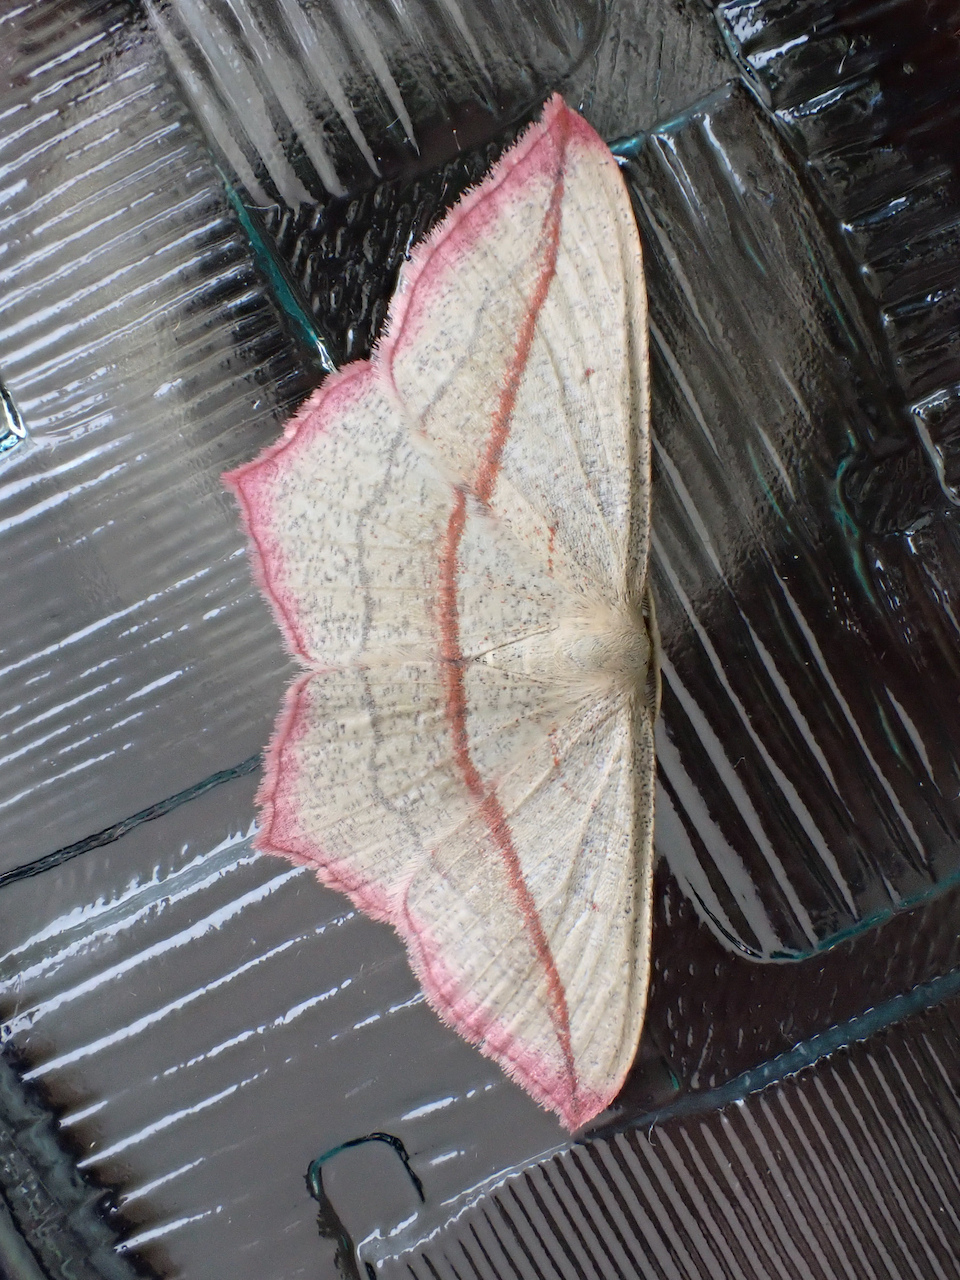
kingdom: Animalia
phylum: Arthropoda
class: Insecta
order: Lepidoptera
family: Geometridae
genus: Timandra
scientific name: Timandra comae
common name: Blood-vein
